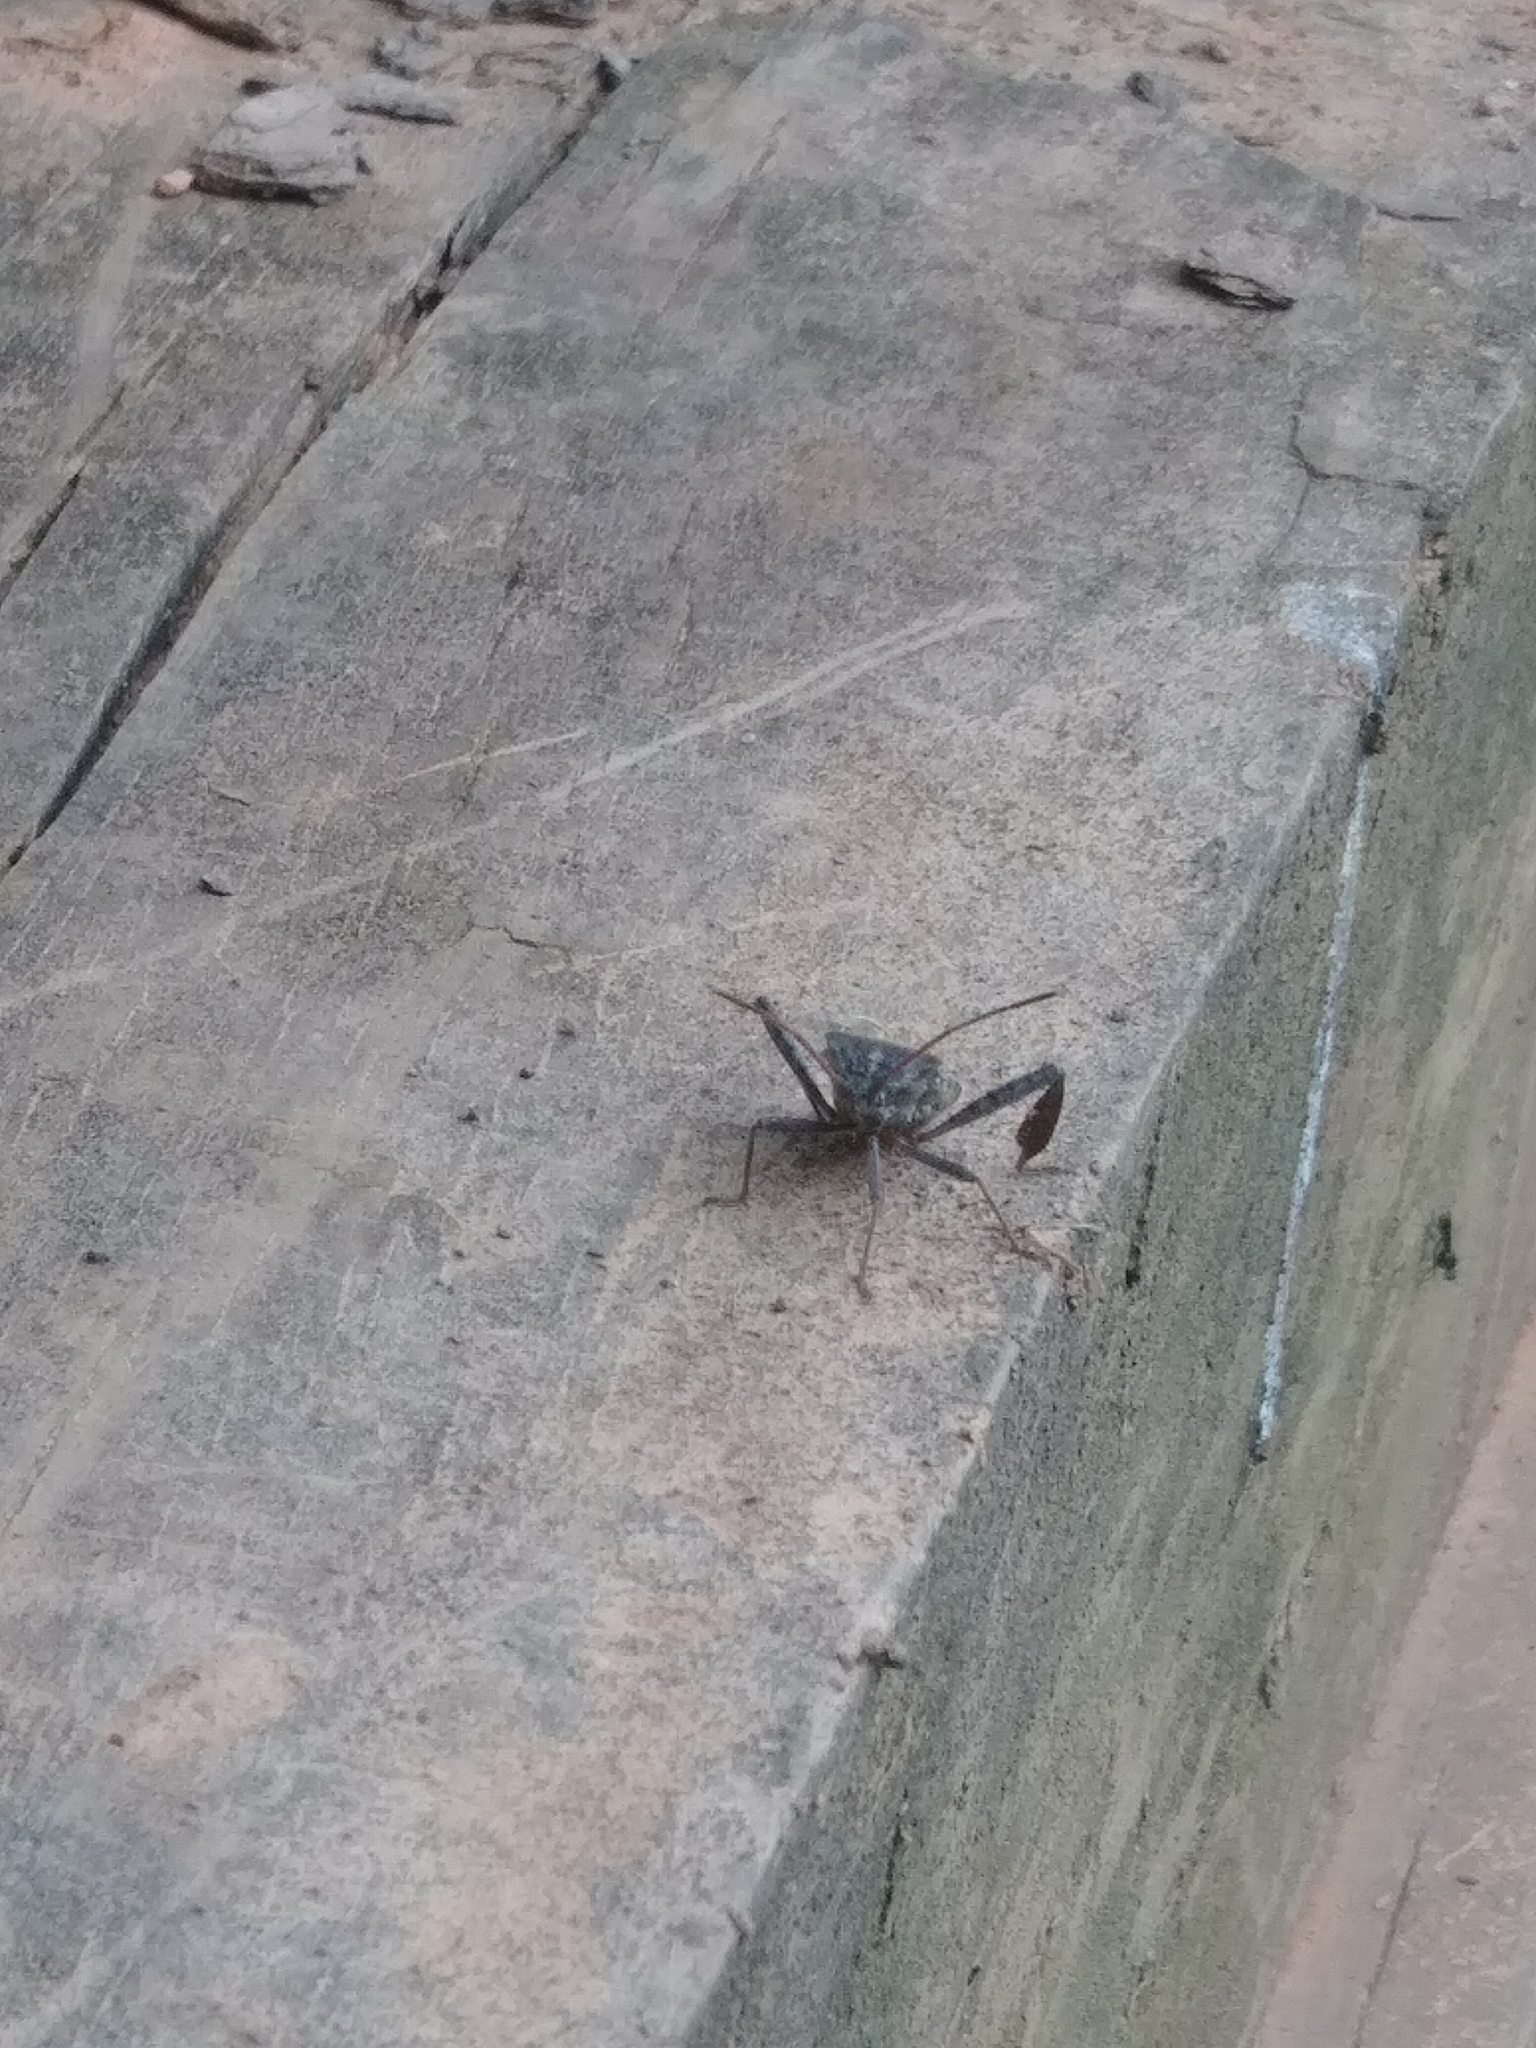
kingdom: Animalia
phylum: Arthropoda
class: Insecta
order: Hemiptera
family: Coreidae
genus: Leptoglossus
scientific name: Leptoglossus corculus
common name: Southern pine seed bug
